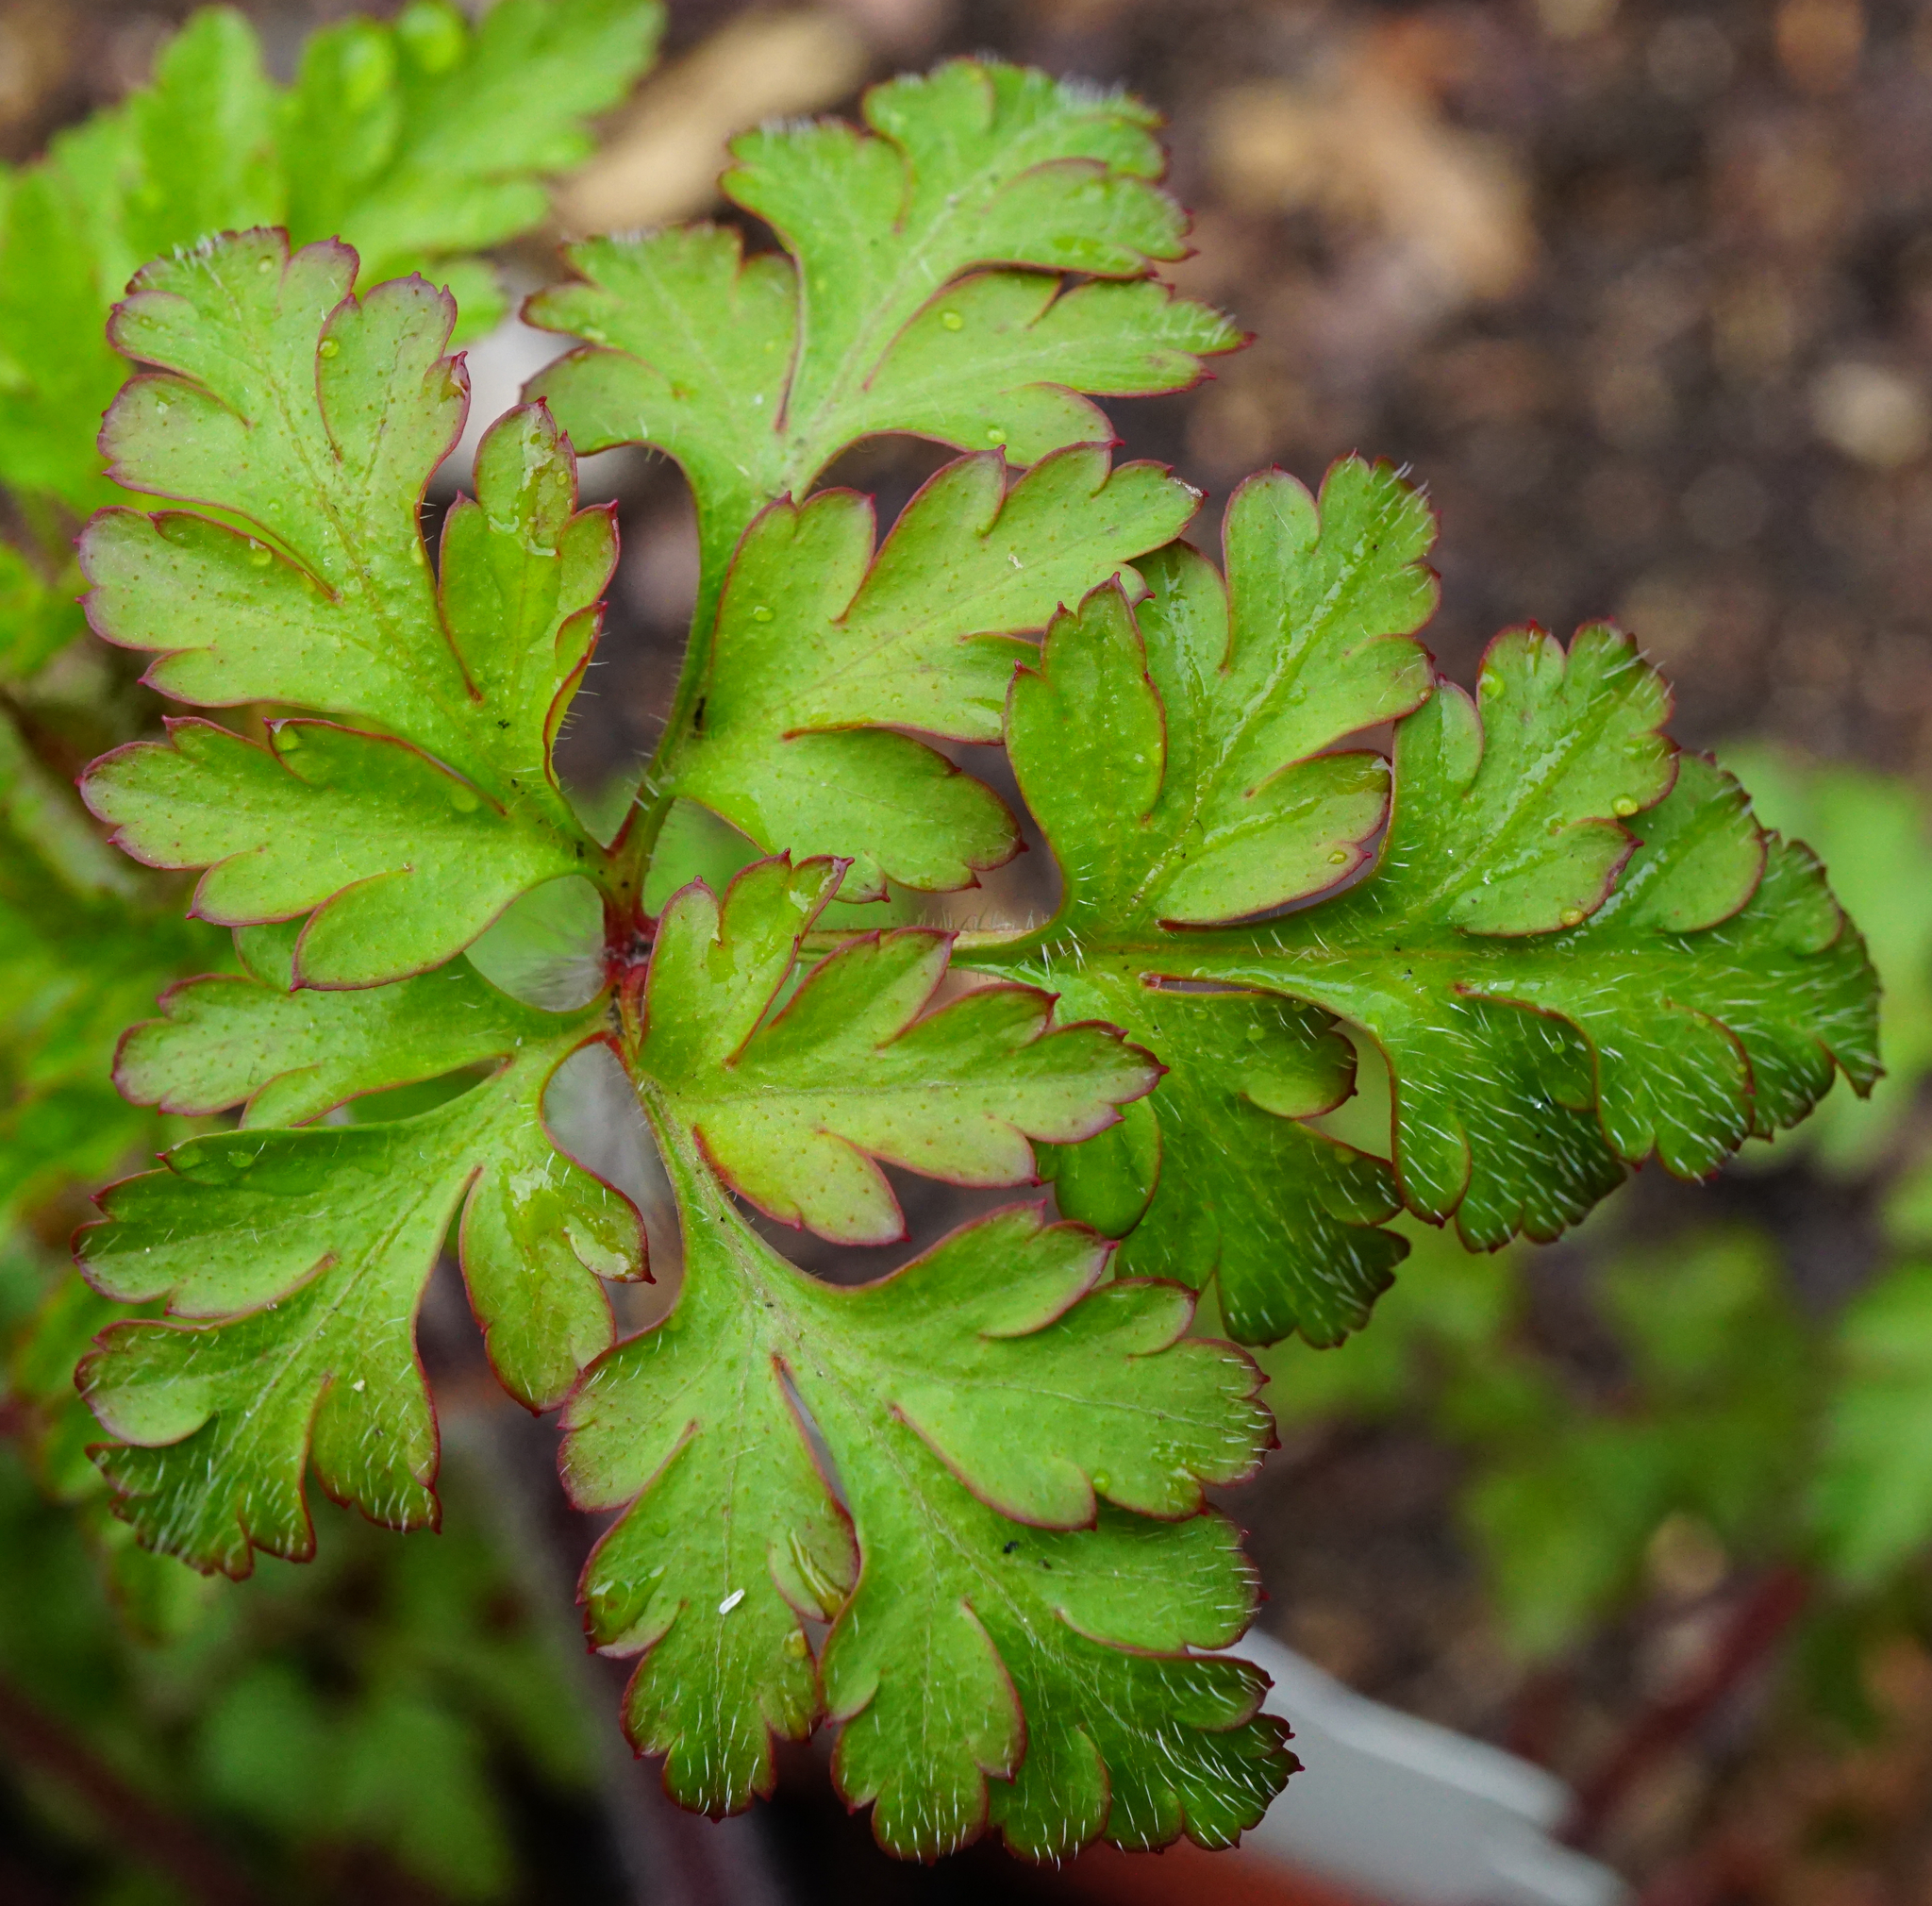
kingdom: Plantae
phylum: Tracheophyta
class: Magnoliopsida
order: Geraniales
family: Geraniaceae
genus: Geranium
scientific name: Geranium robertianum
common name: Herb-robert
